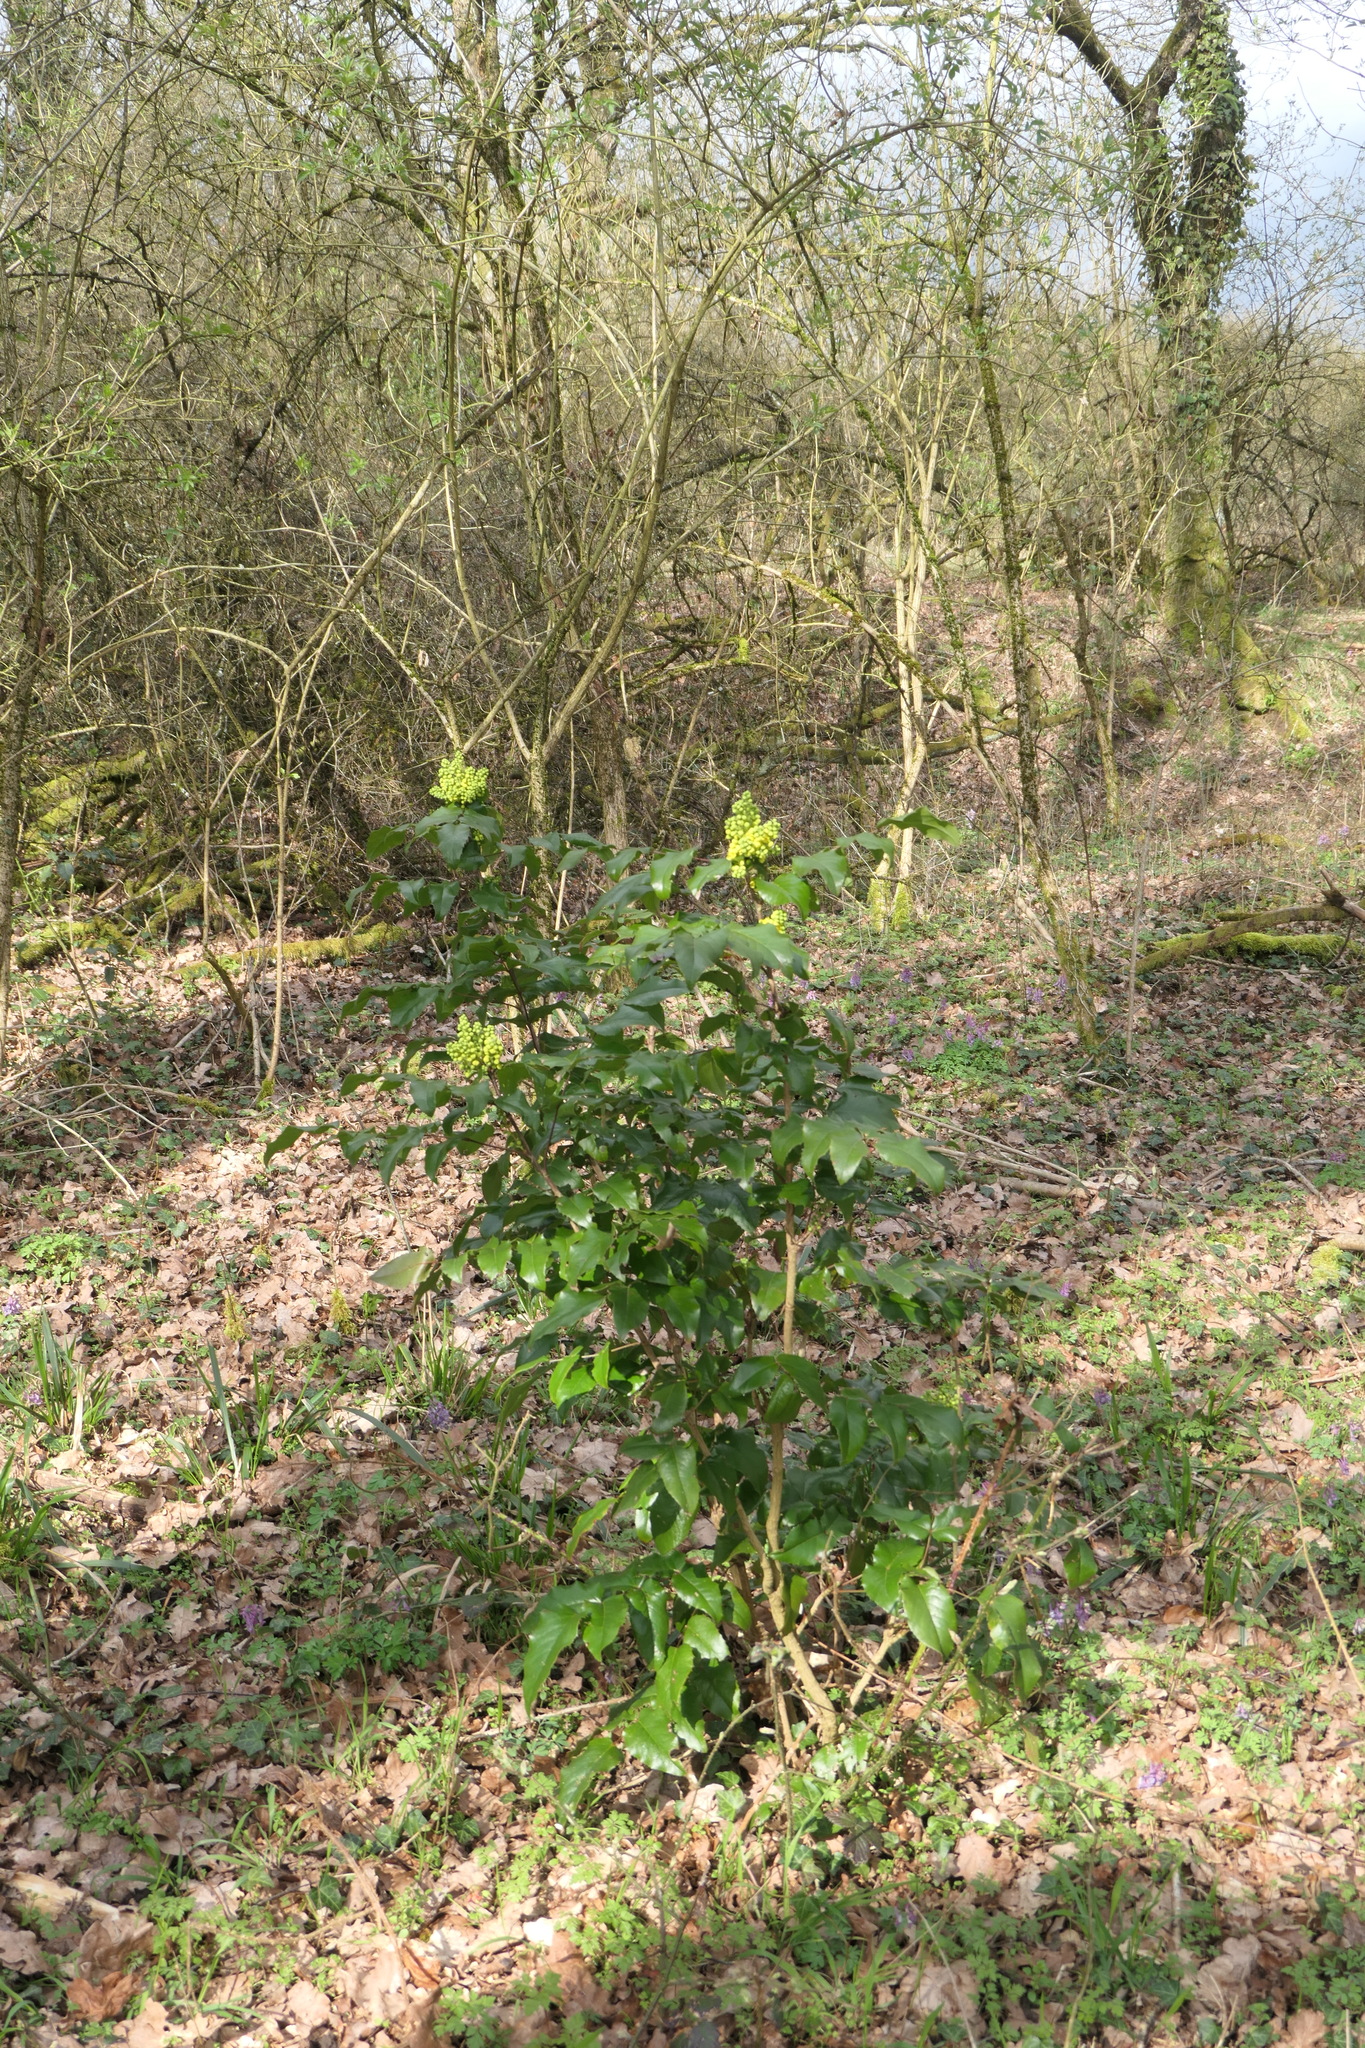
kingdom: Plantae
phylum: Tracheophyta
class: Magnoliopsida
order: Ranunculales
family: Berberidaceae
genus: Mahonia
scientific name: Mahonia aquifolium
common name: Oregon-grape
